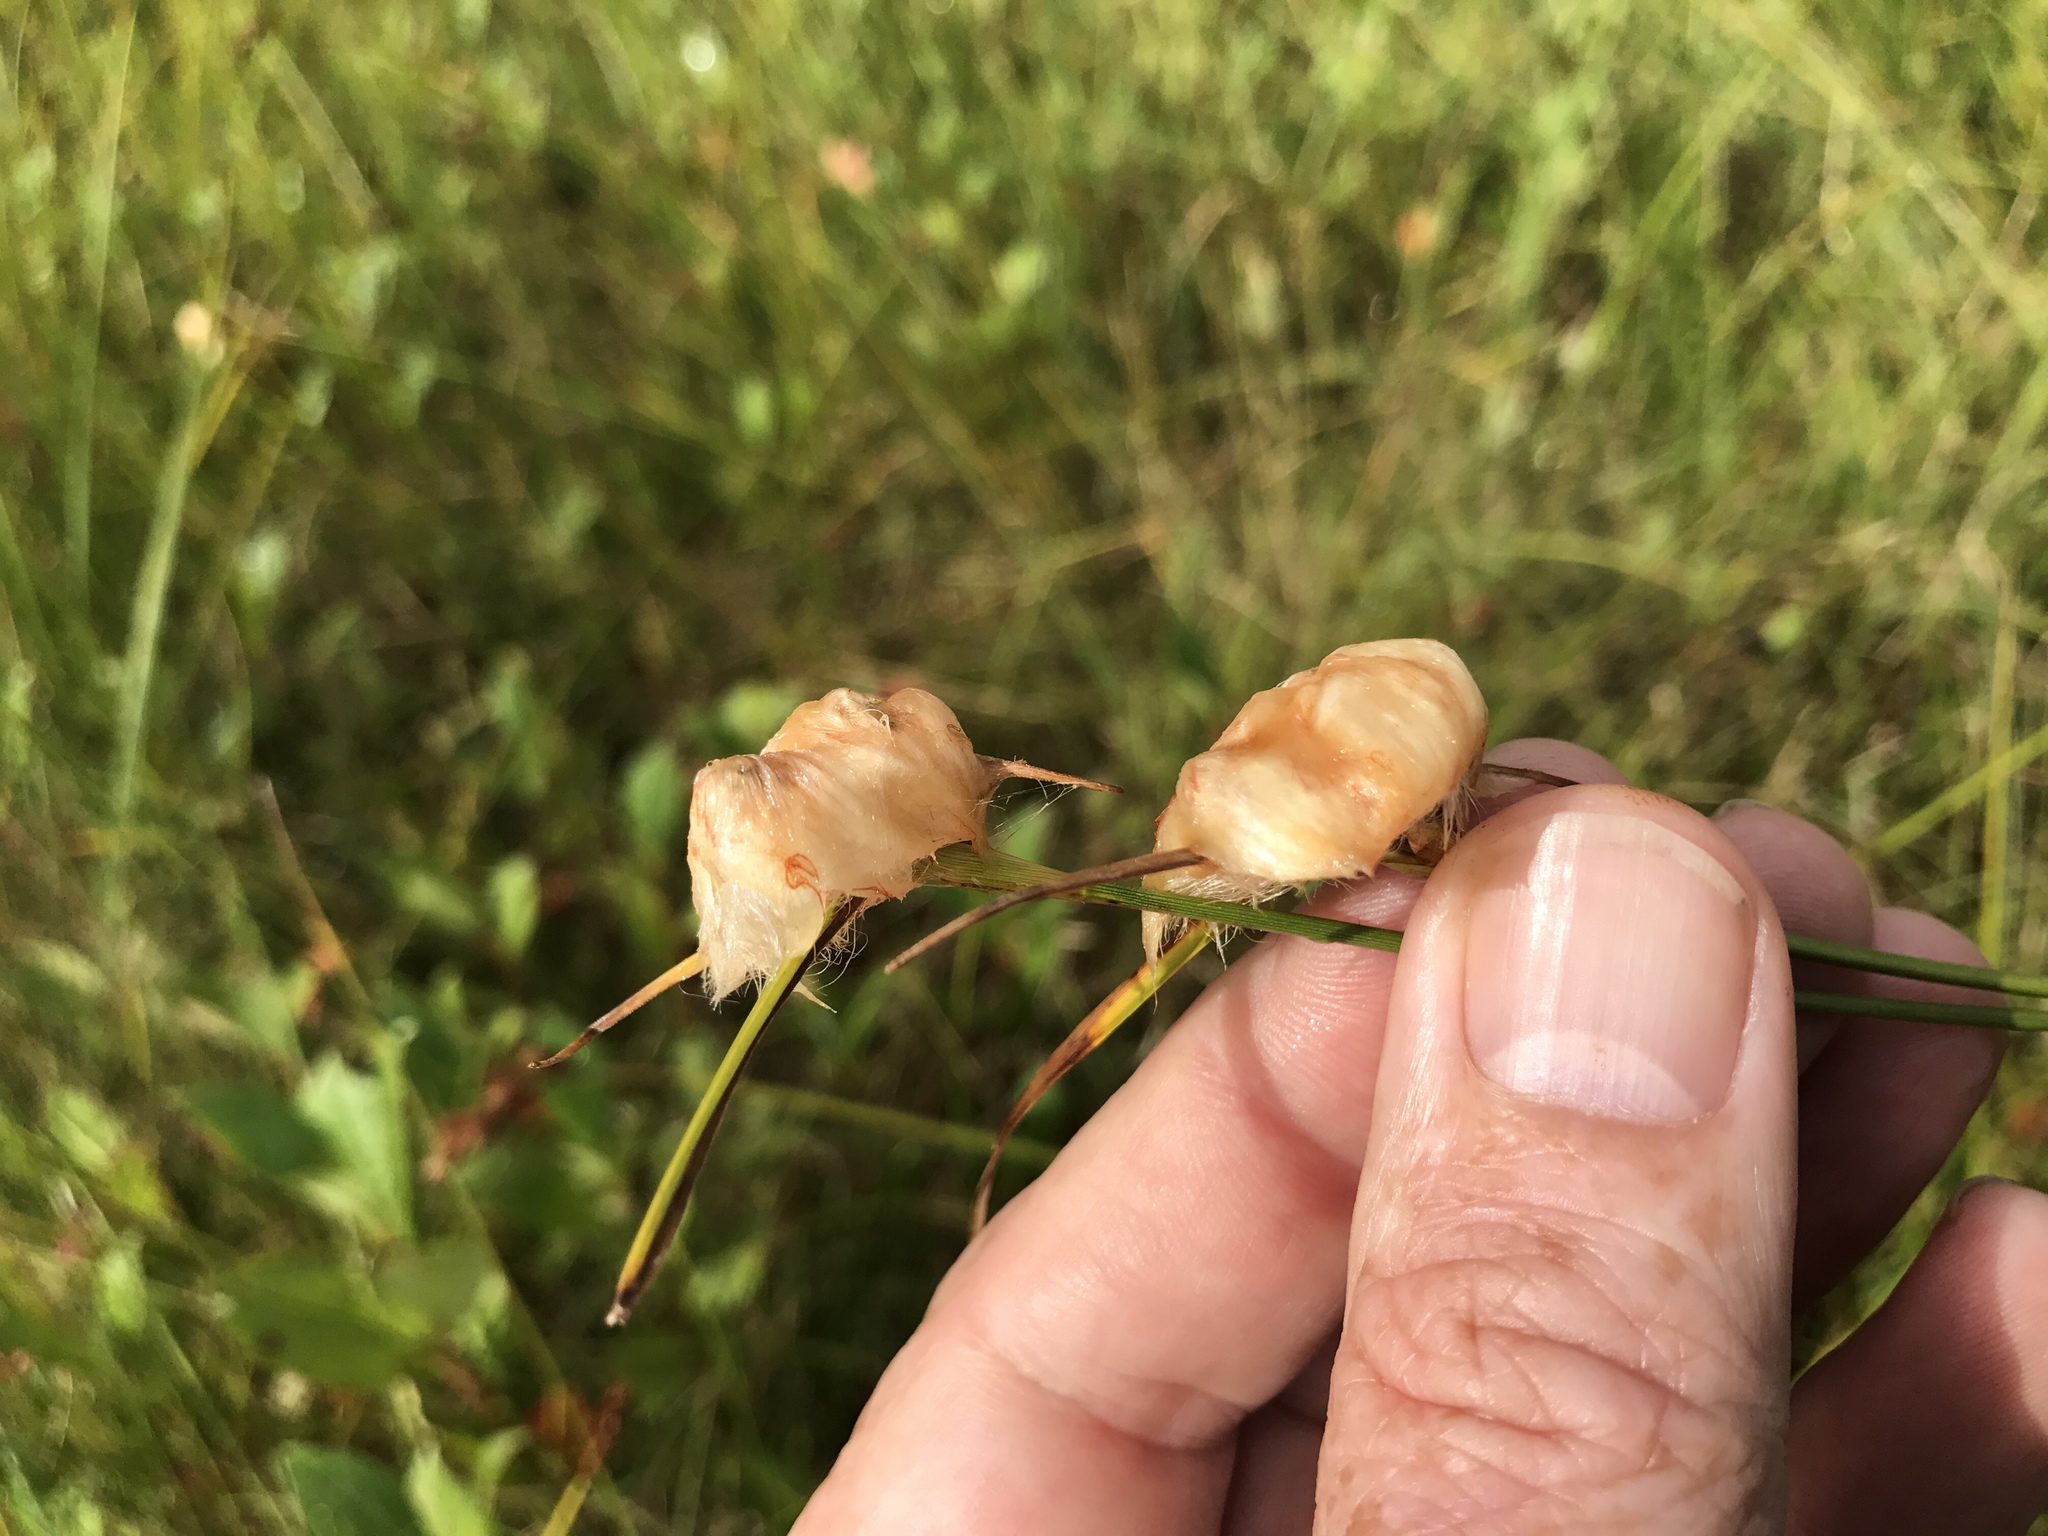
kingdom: Plantae
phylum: Tracheophyta
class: Liliopsida
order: Poales
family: Cyperaceae
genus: Eriophorum
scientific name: Eriophorum virginicum
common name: Tawny cottongrass
